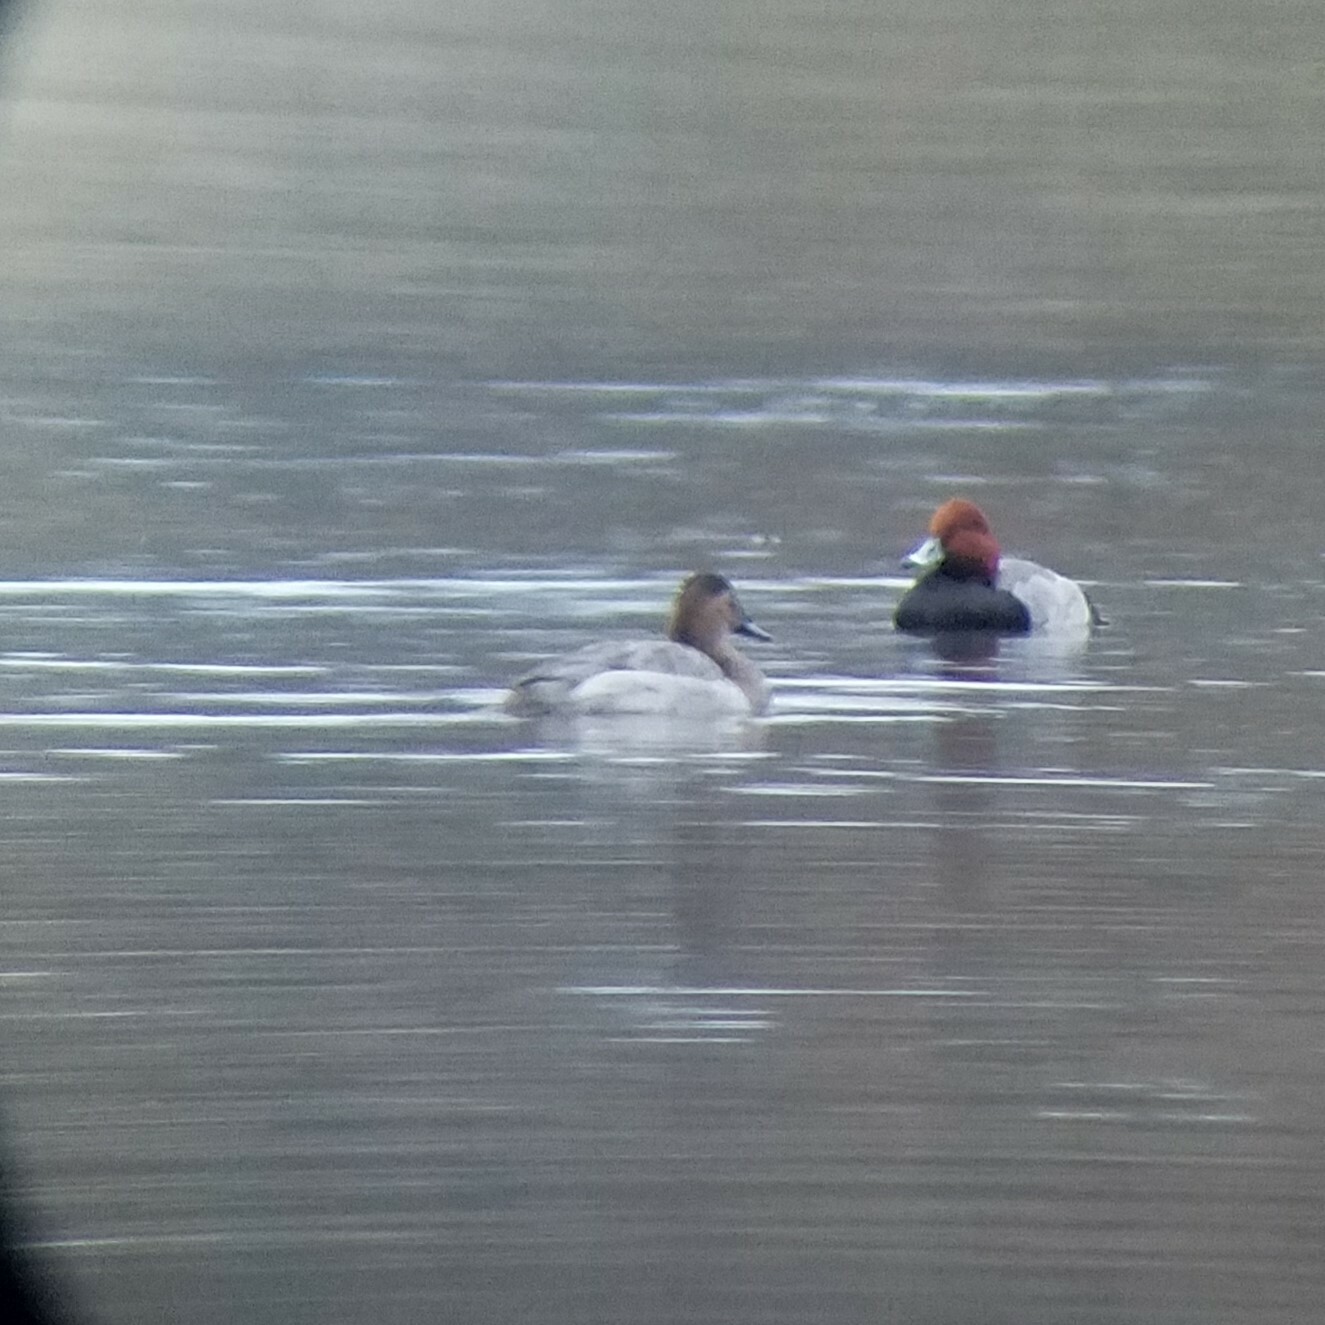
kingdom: Animalia
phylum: Chordata
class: Aves
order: Anseriformes
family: Anatidae
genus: Aythya
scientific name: Aythya valisineria
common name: Canvasback
